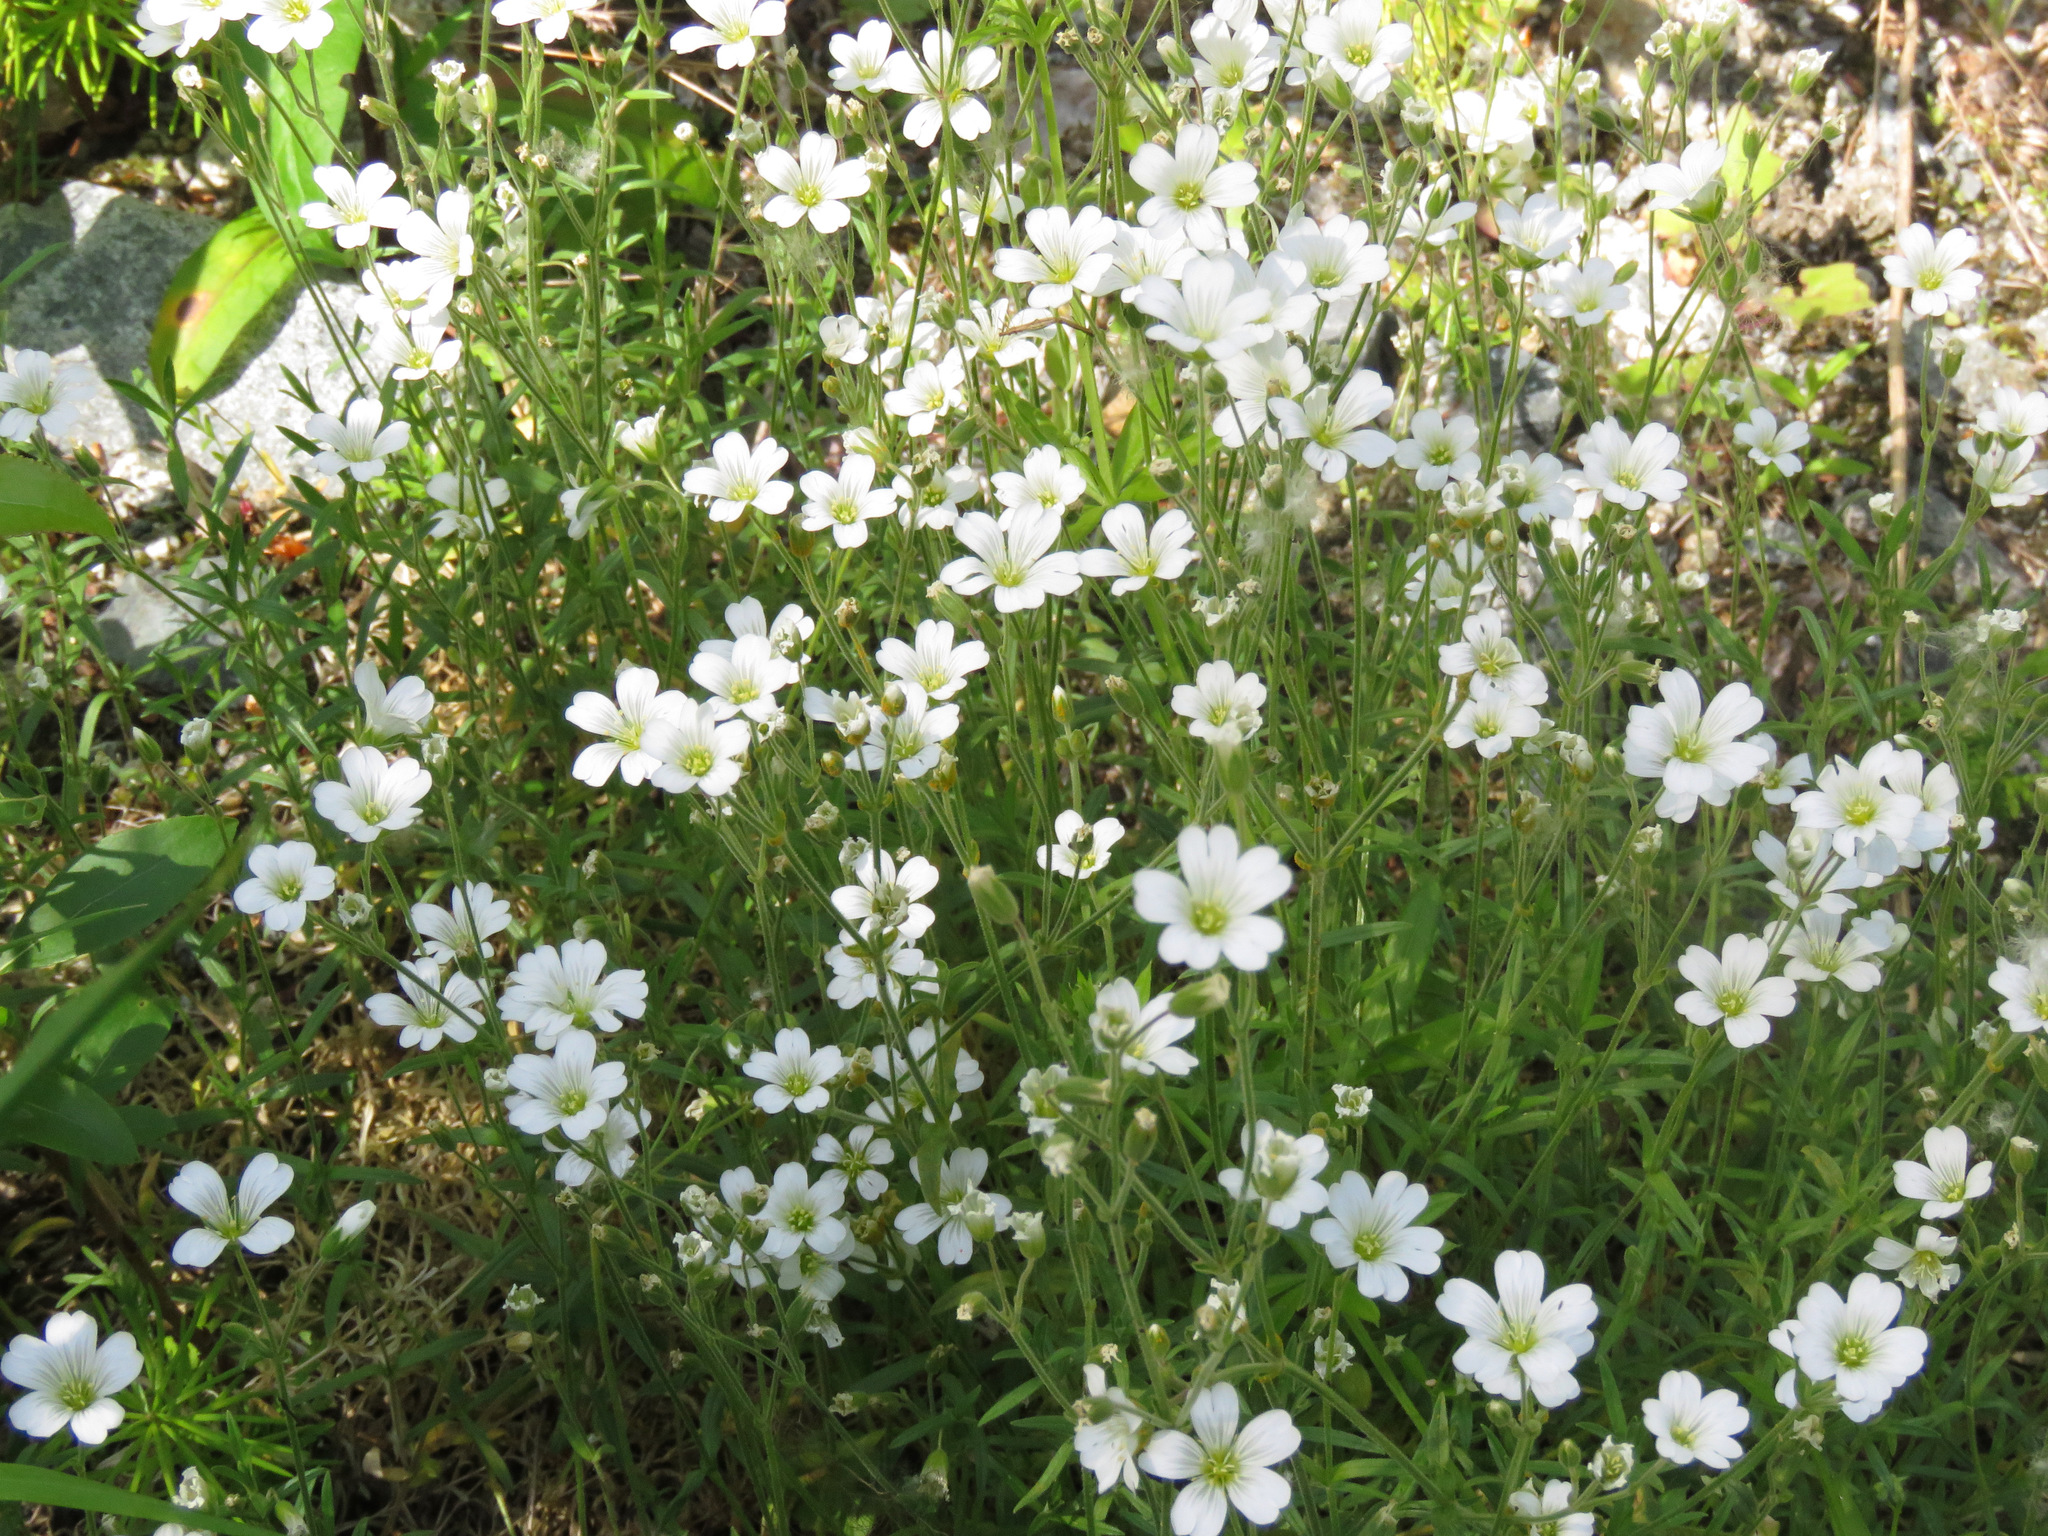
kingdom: Plantae
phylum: Tracheophyta
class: Magnoliopsida
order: Caryophyllales
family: Caryophyllaceae
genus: Cerastium
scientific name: Cerastium arvense
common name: Field mouse-ear
